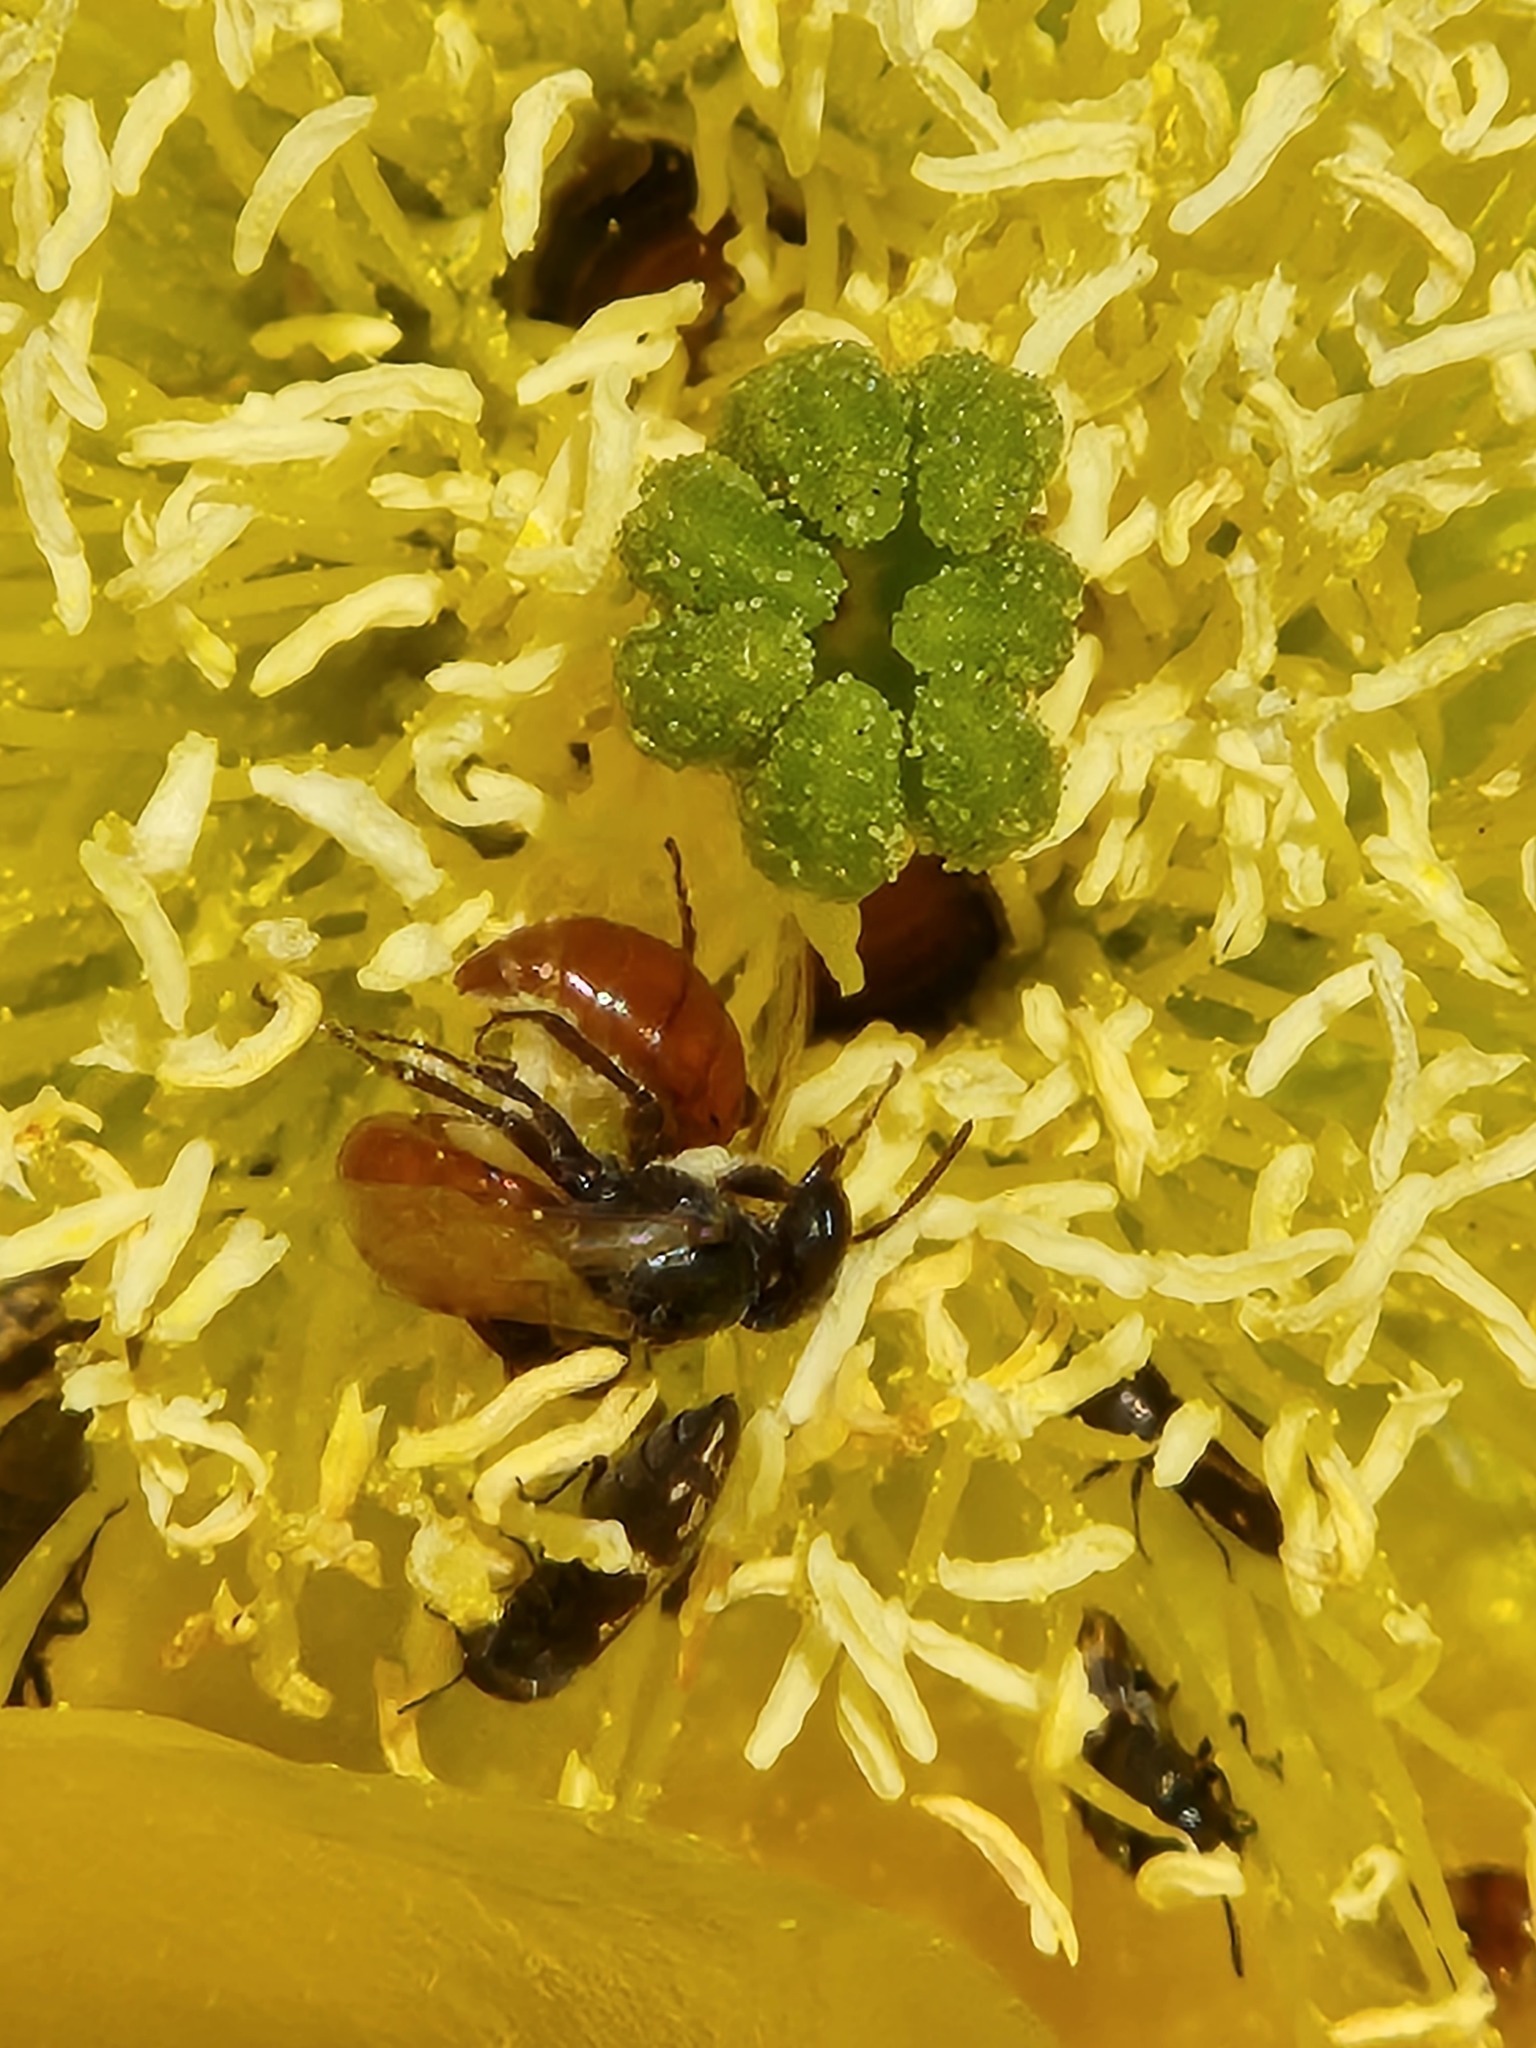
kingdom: Animalia
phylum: Arthropoda
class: Insecta
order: Hymenoptera
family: Andrenidae
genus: Macrotera
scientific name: Macrotera
